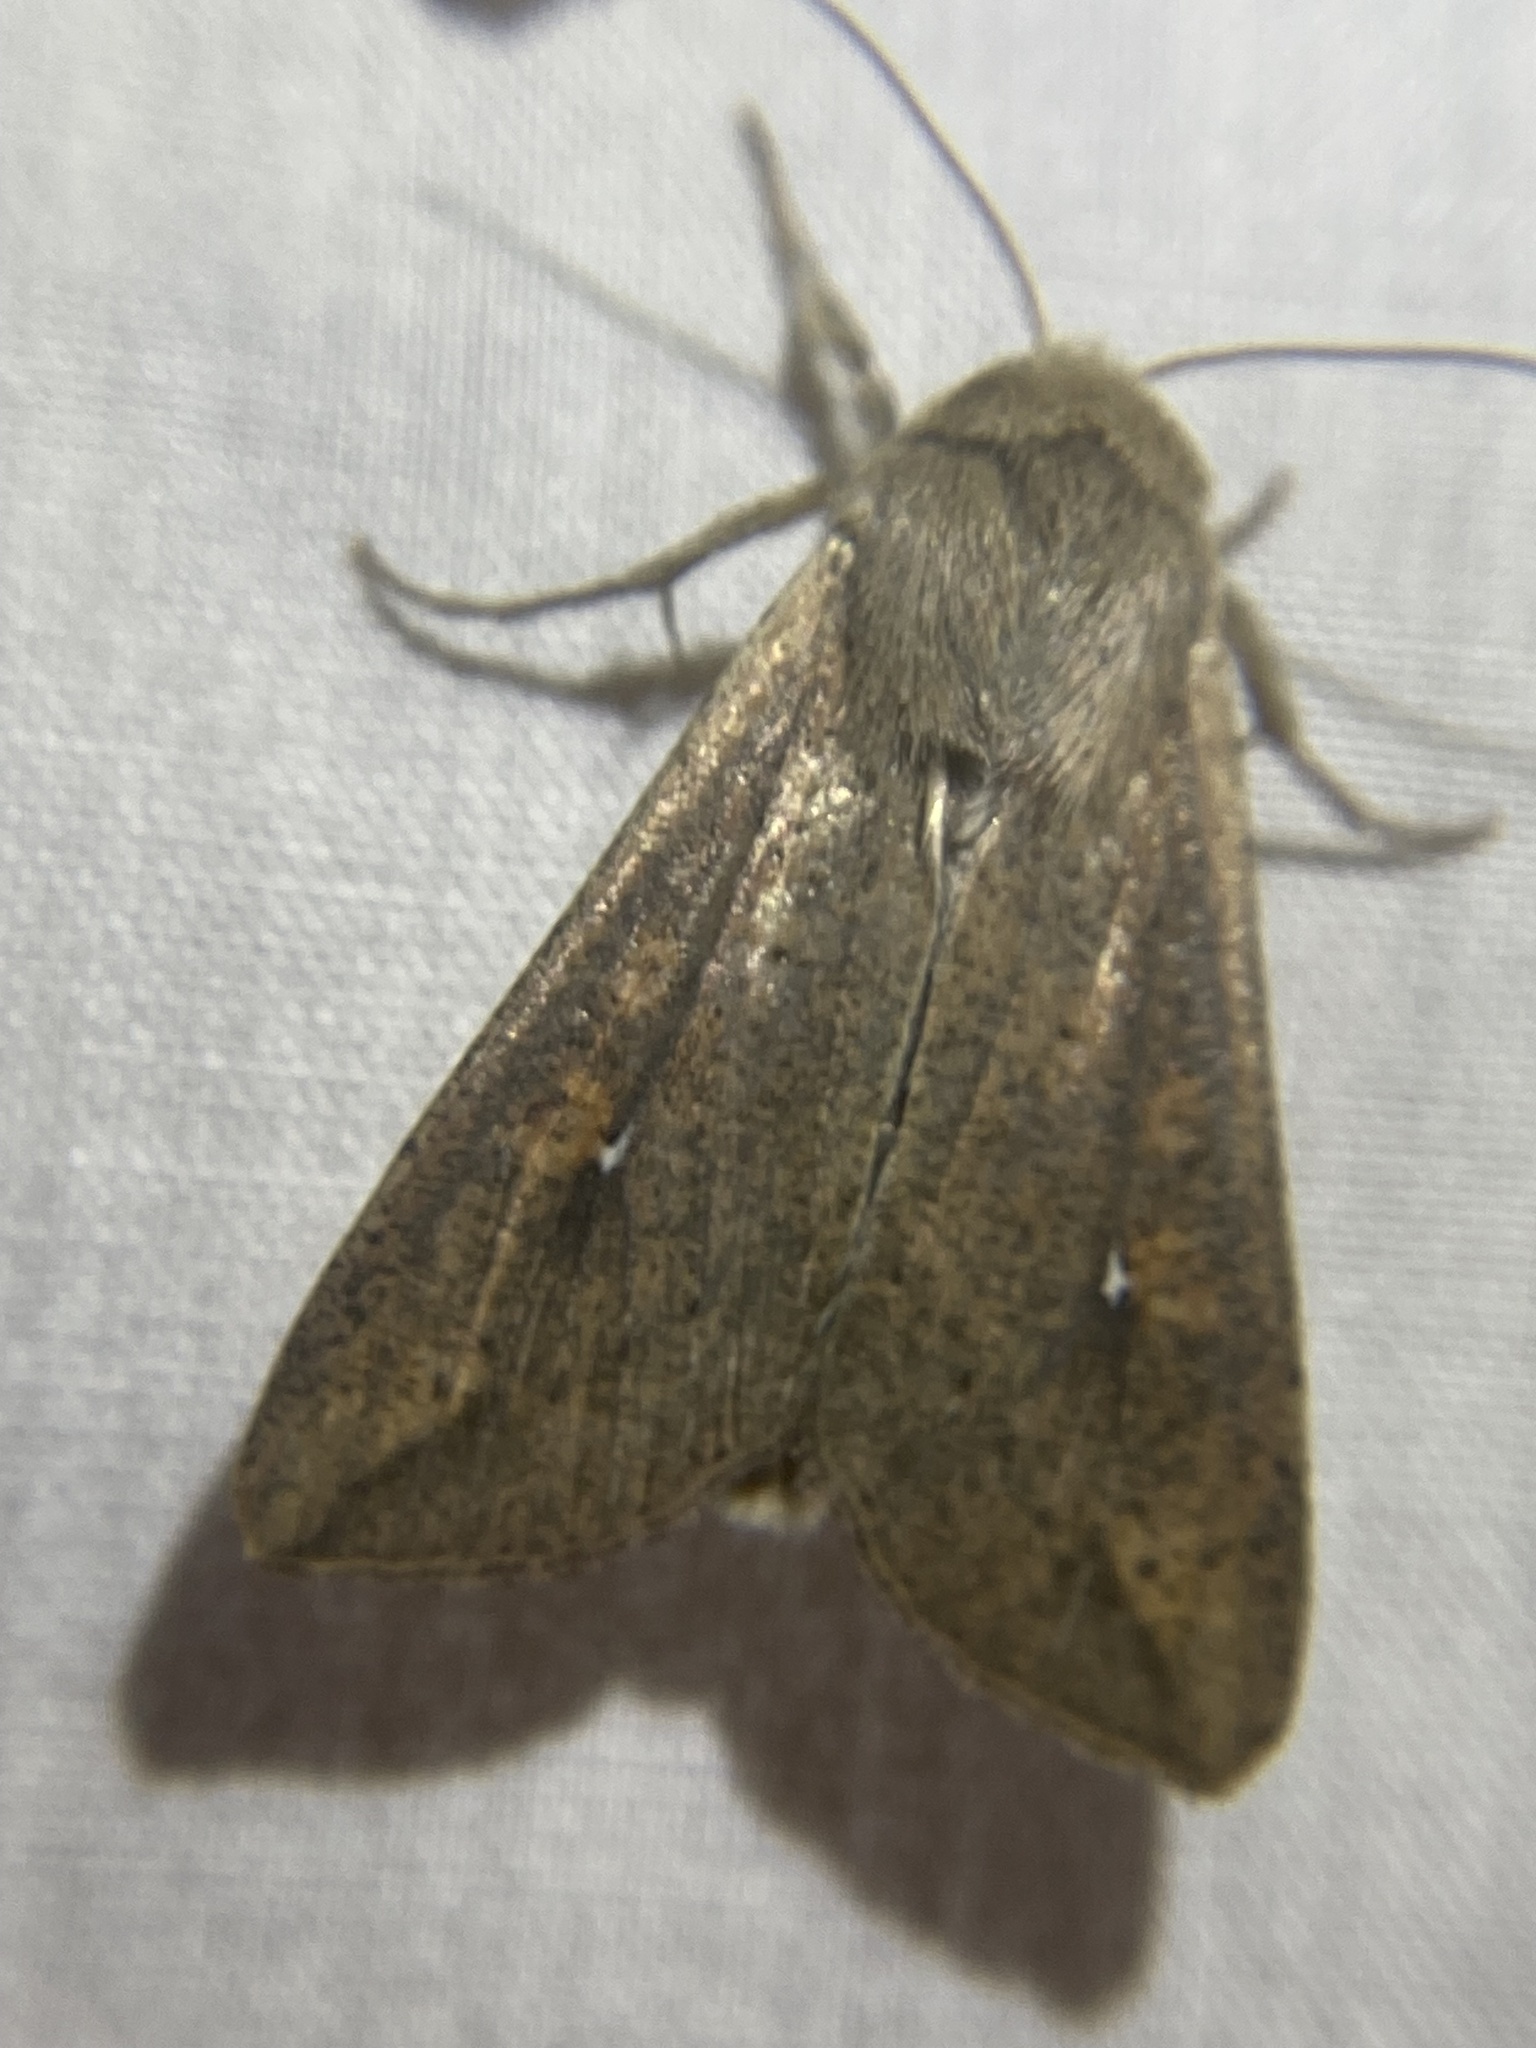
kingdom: Animalia
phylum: Arthropoda
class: Insecta
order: Lepidoptera
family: Noctuidae
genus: Mythimna
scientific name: Mythimna unipuncta
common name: White-speck
